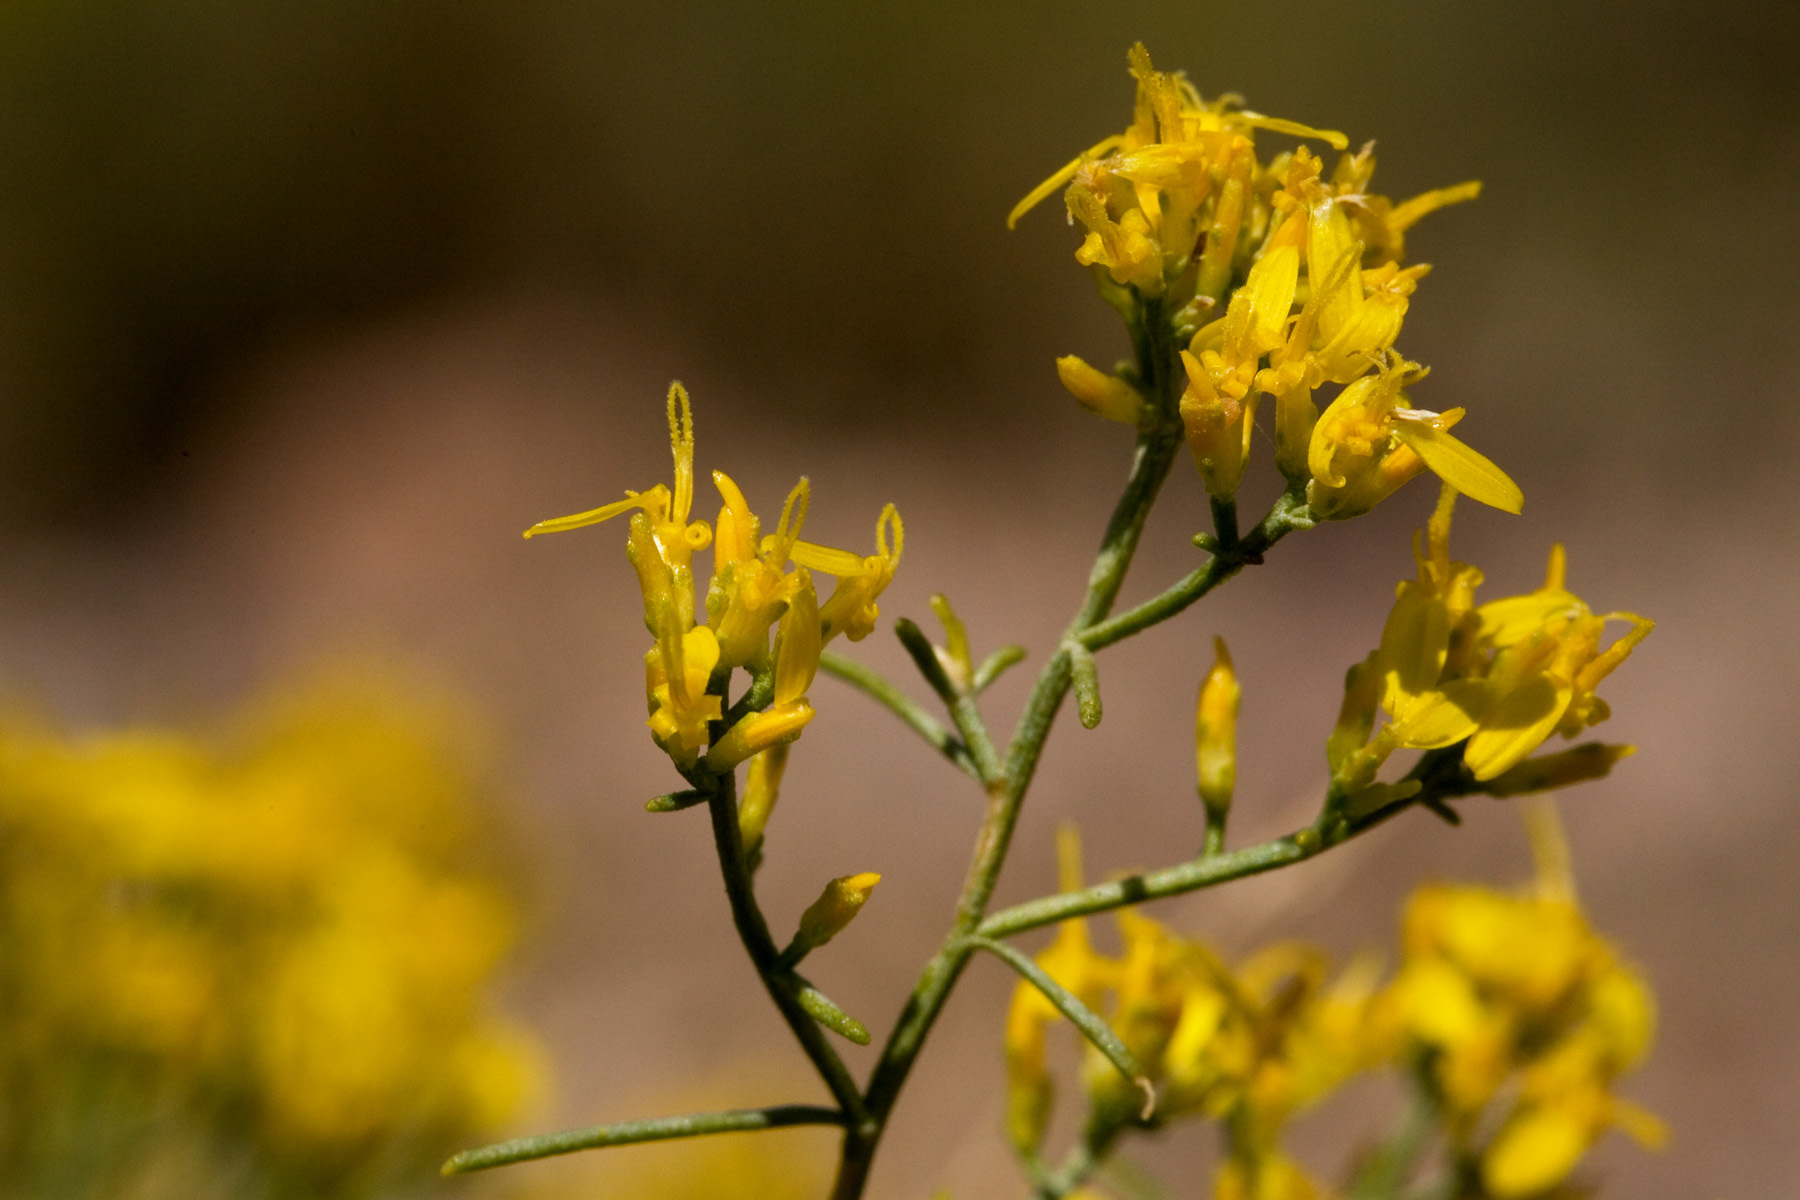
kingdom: Plantae
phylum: Tracheophyta
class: Magnoliopsida
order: Asterales
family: Asteraceae
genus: Gutierrezia
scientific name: Gutierrezia microcephala
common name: Thread snakeweed
